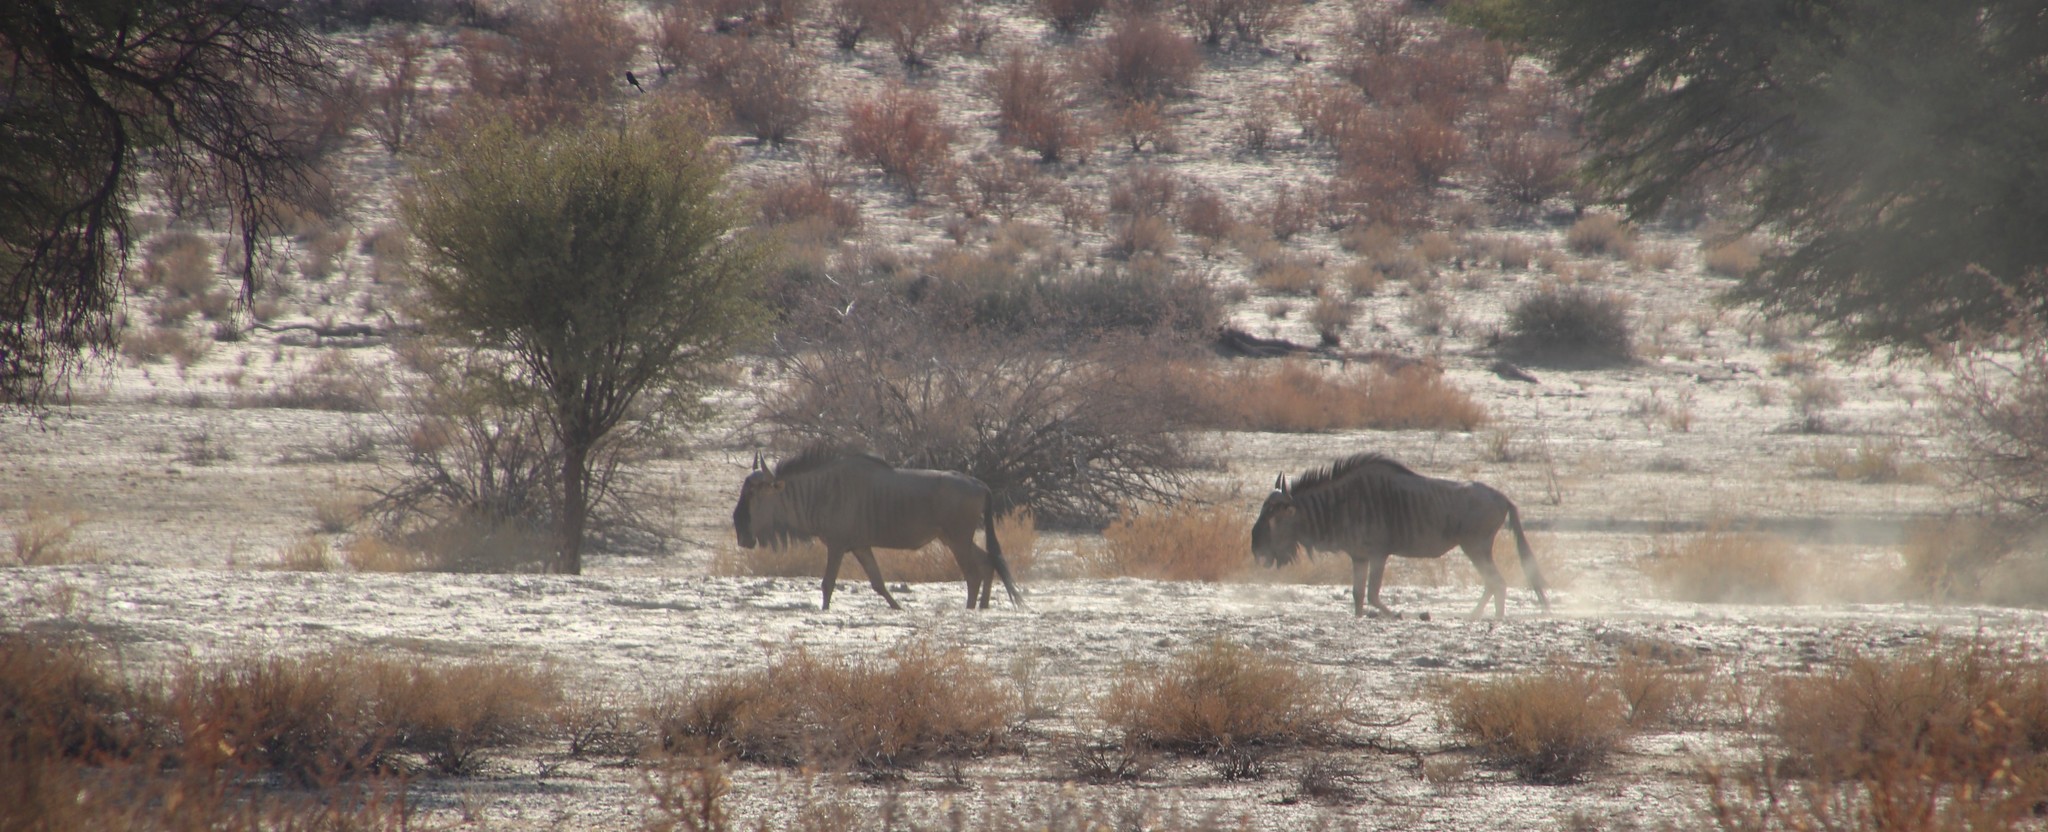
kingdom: Animalia
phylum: Chordata
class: Mammalia
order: Artiodactyla
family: Bovidae
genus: Connochaetes
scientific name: Connochaetes taurinus
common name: Blue wildebeest
